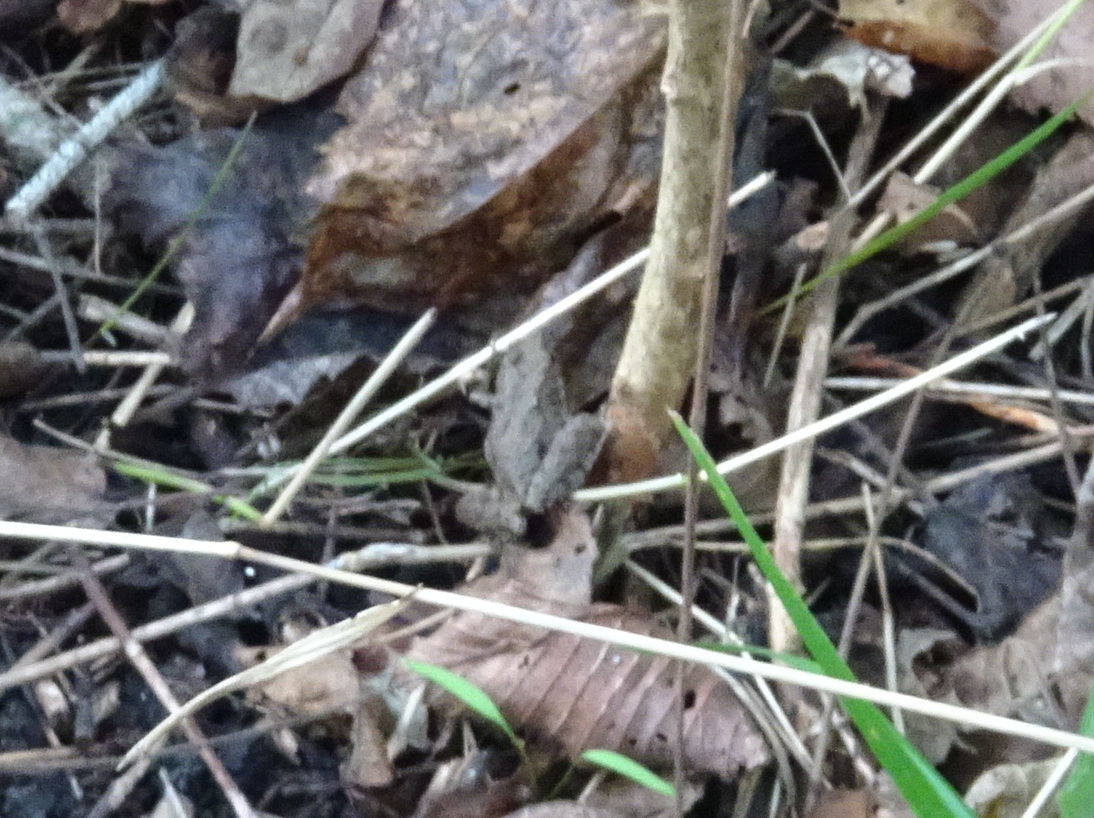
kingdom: Animalia
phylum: Chordata
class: Amphibia
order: Anura
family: Hylidae
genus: Acris
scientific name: Acris blanchardi
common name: Blanchard's cricket frog
